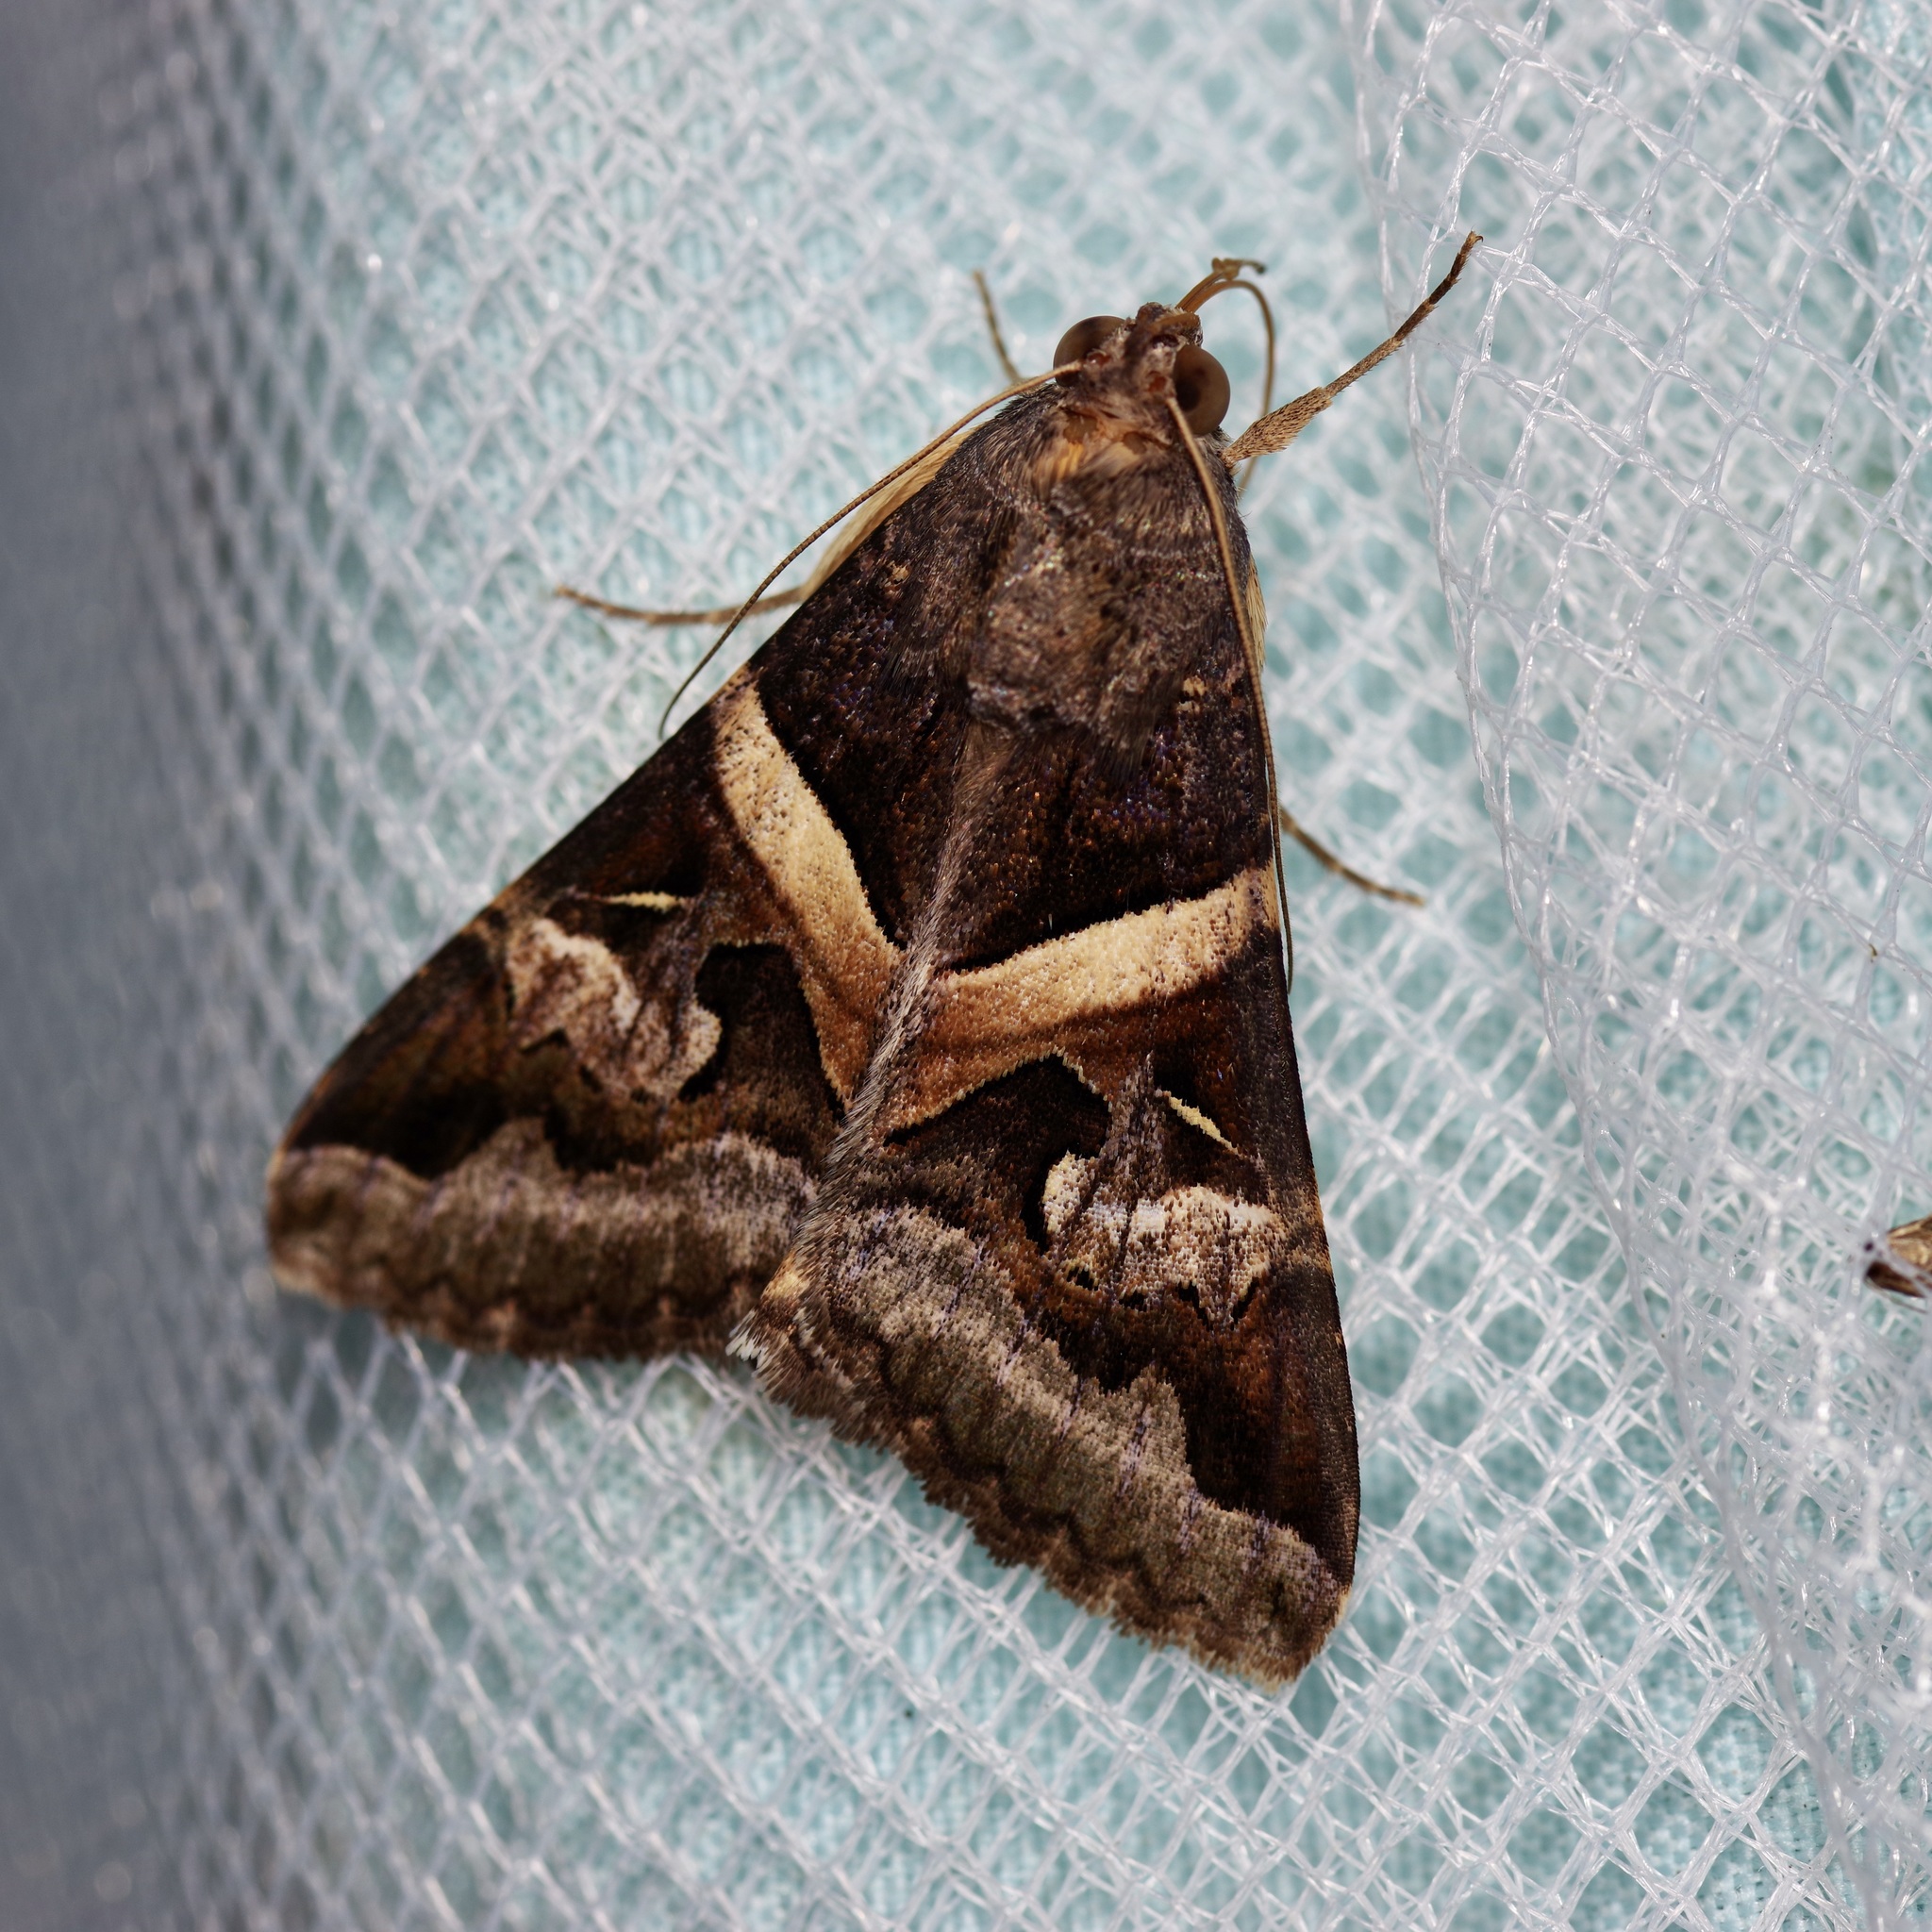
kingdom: Animalia
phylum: Arthropoda
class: Insecta
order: Lepidoptera
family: Erebidae
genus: Melipotis
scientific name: Melipotis indomita
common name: Moth
